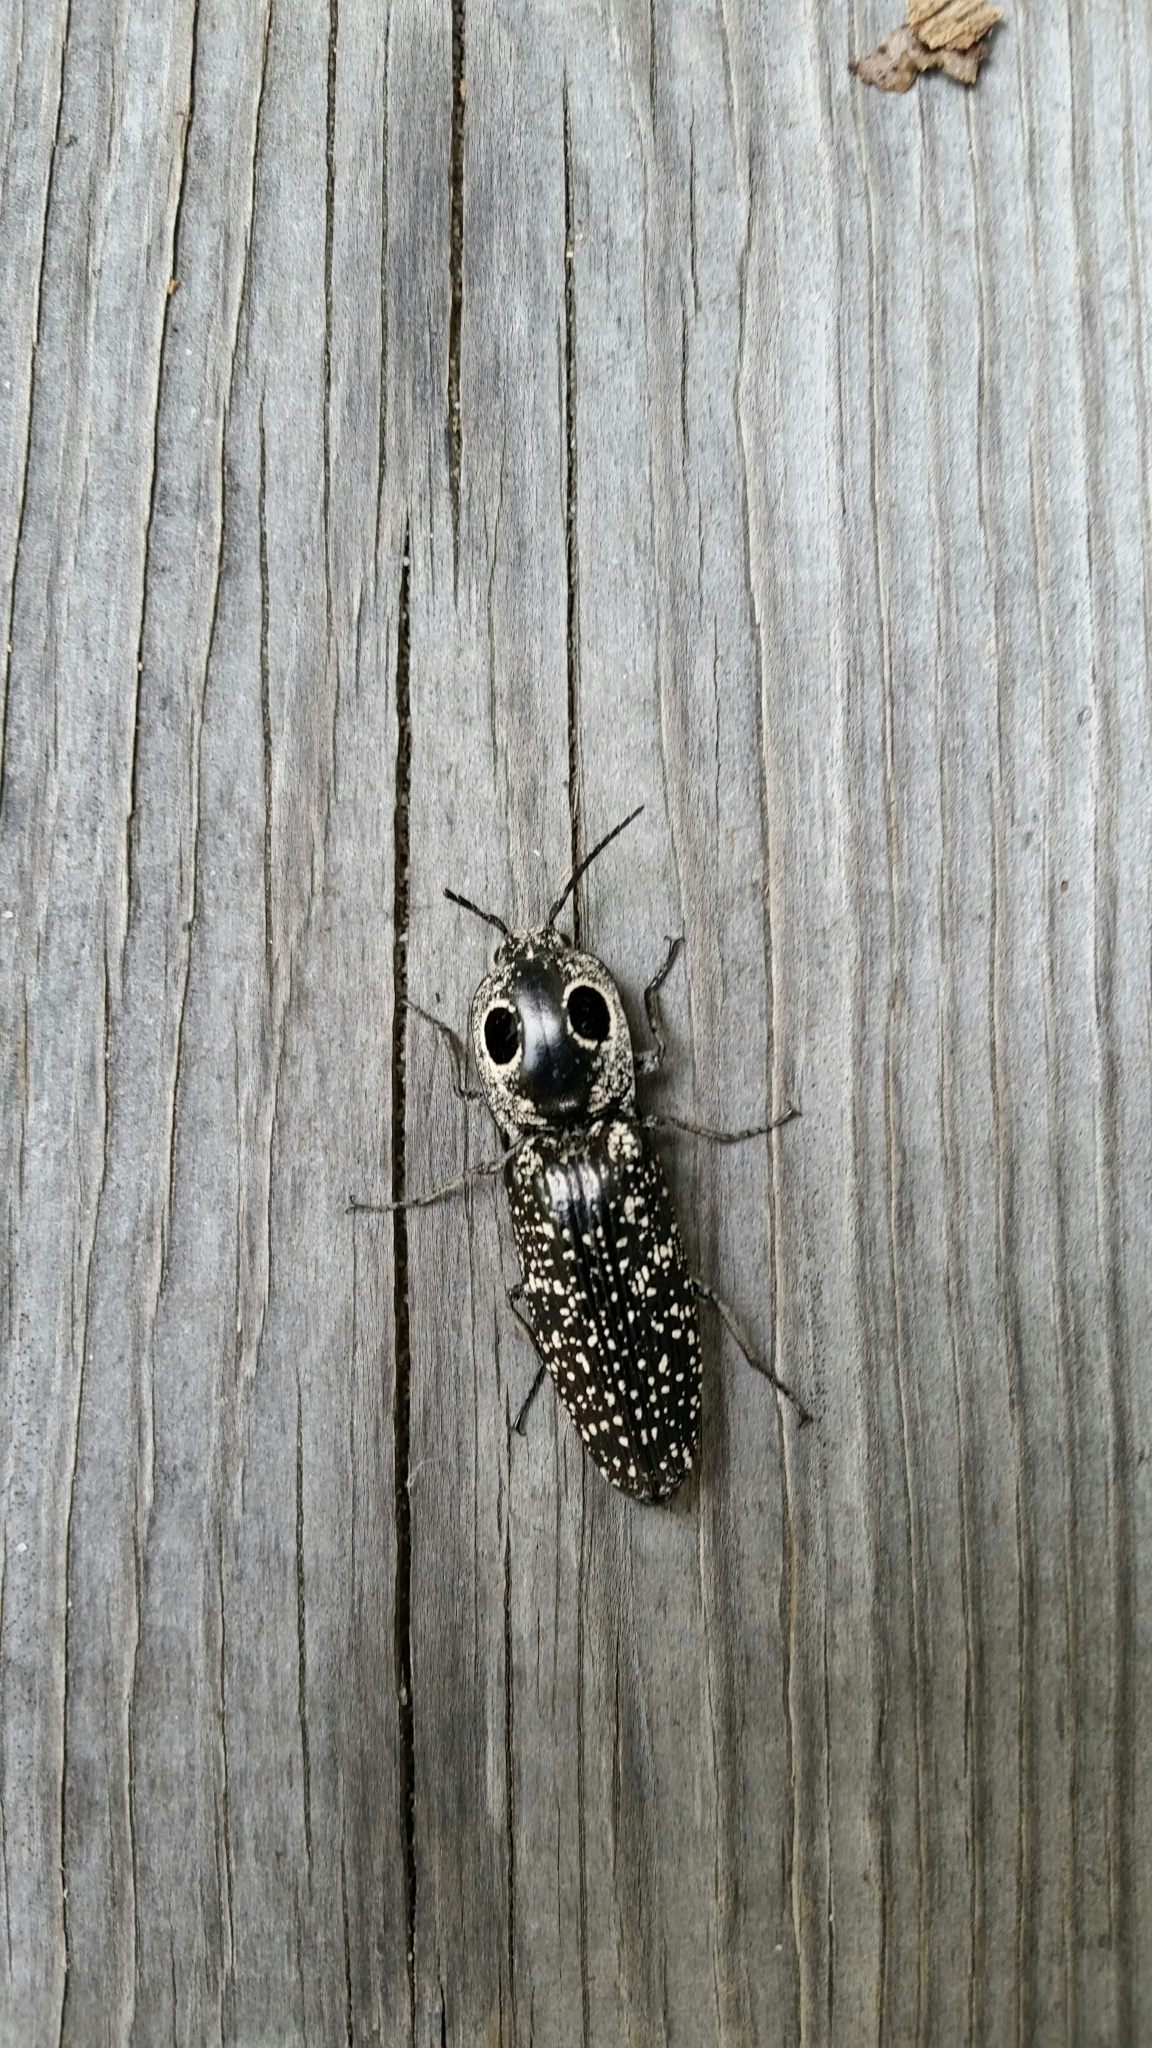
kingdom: Animalia
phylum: Arthropoda
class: Insecta
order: Coleoptera
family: Elateridae
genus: Alaus
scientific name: Alaus oculatus
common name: Eastern eyed click beetle
